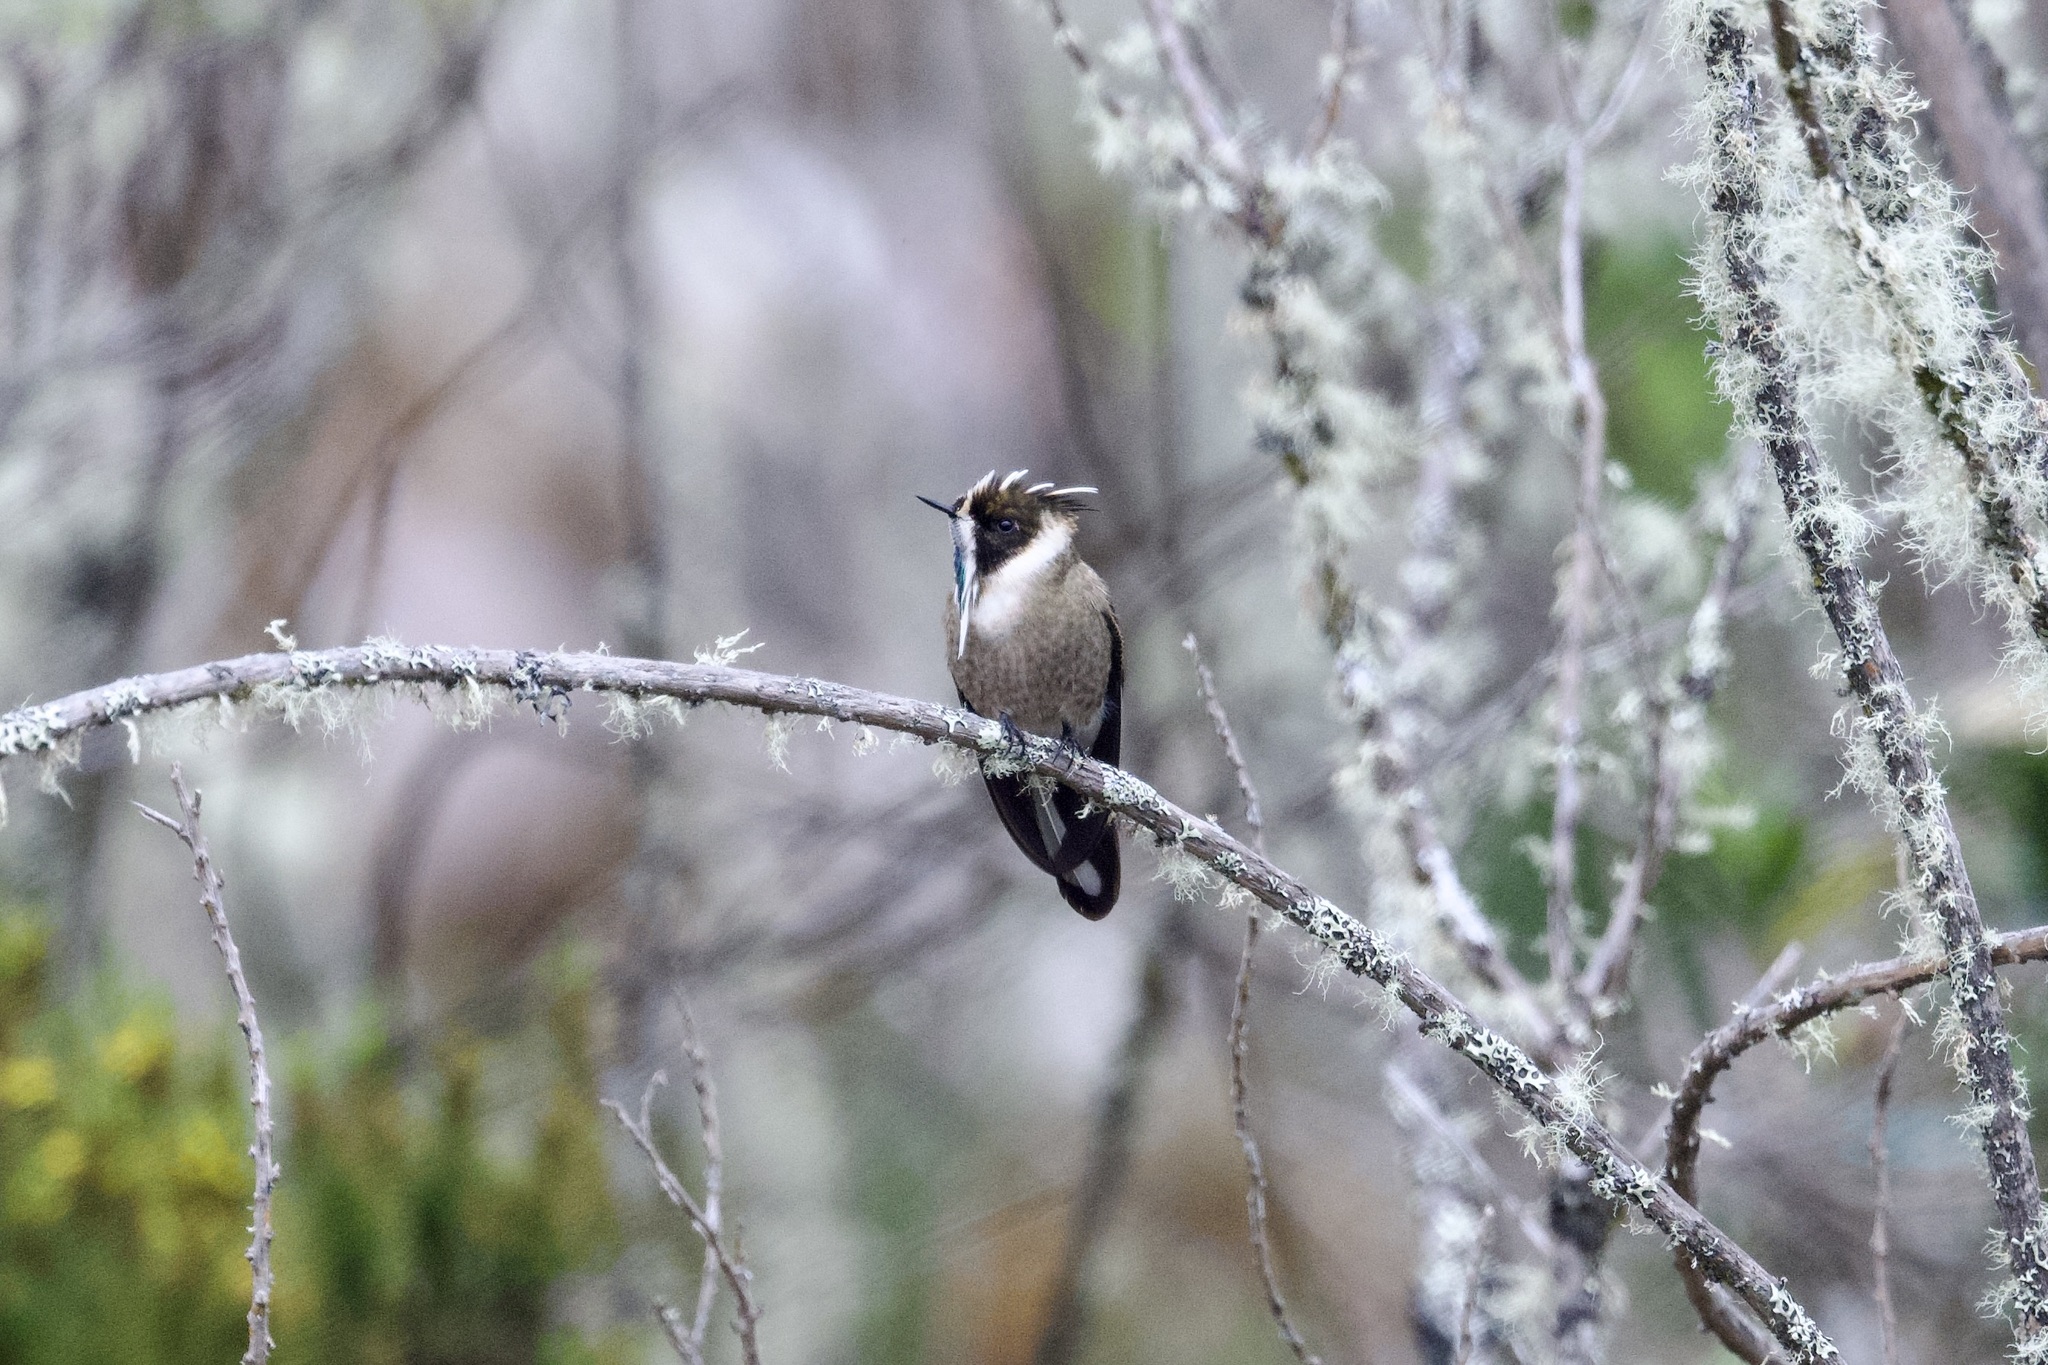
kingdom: Animalia
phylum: Chordata
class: Aves
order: Apodiformes
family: Trochilidae
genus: Oxypogon
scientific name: Oxypogon guerinii
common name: Bearded helmetcrest
